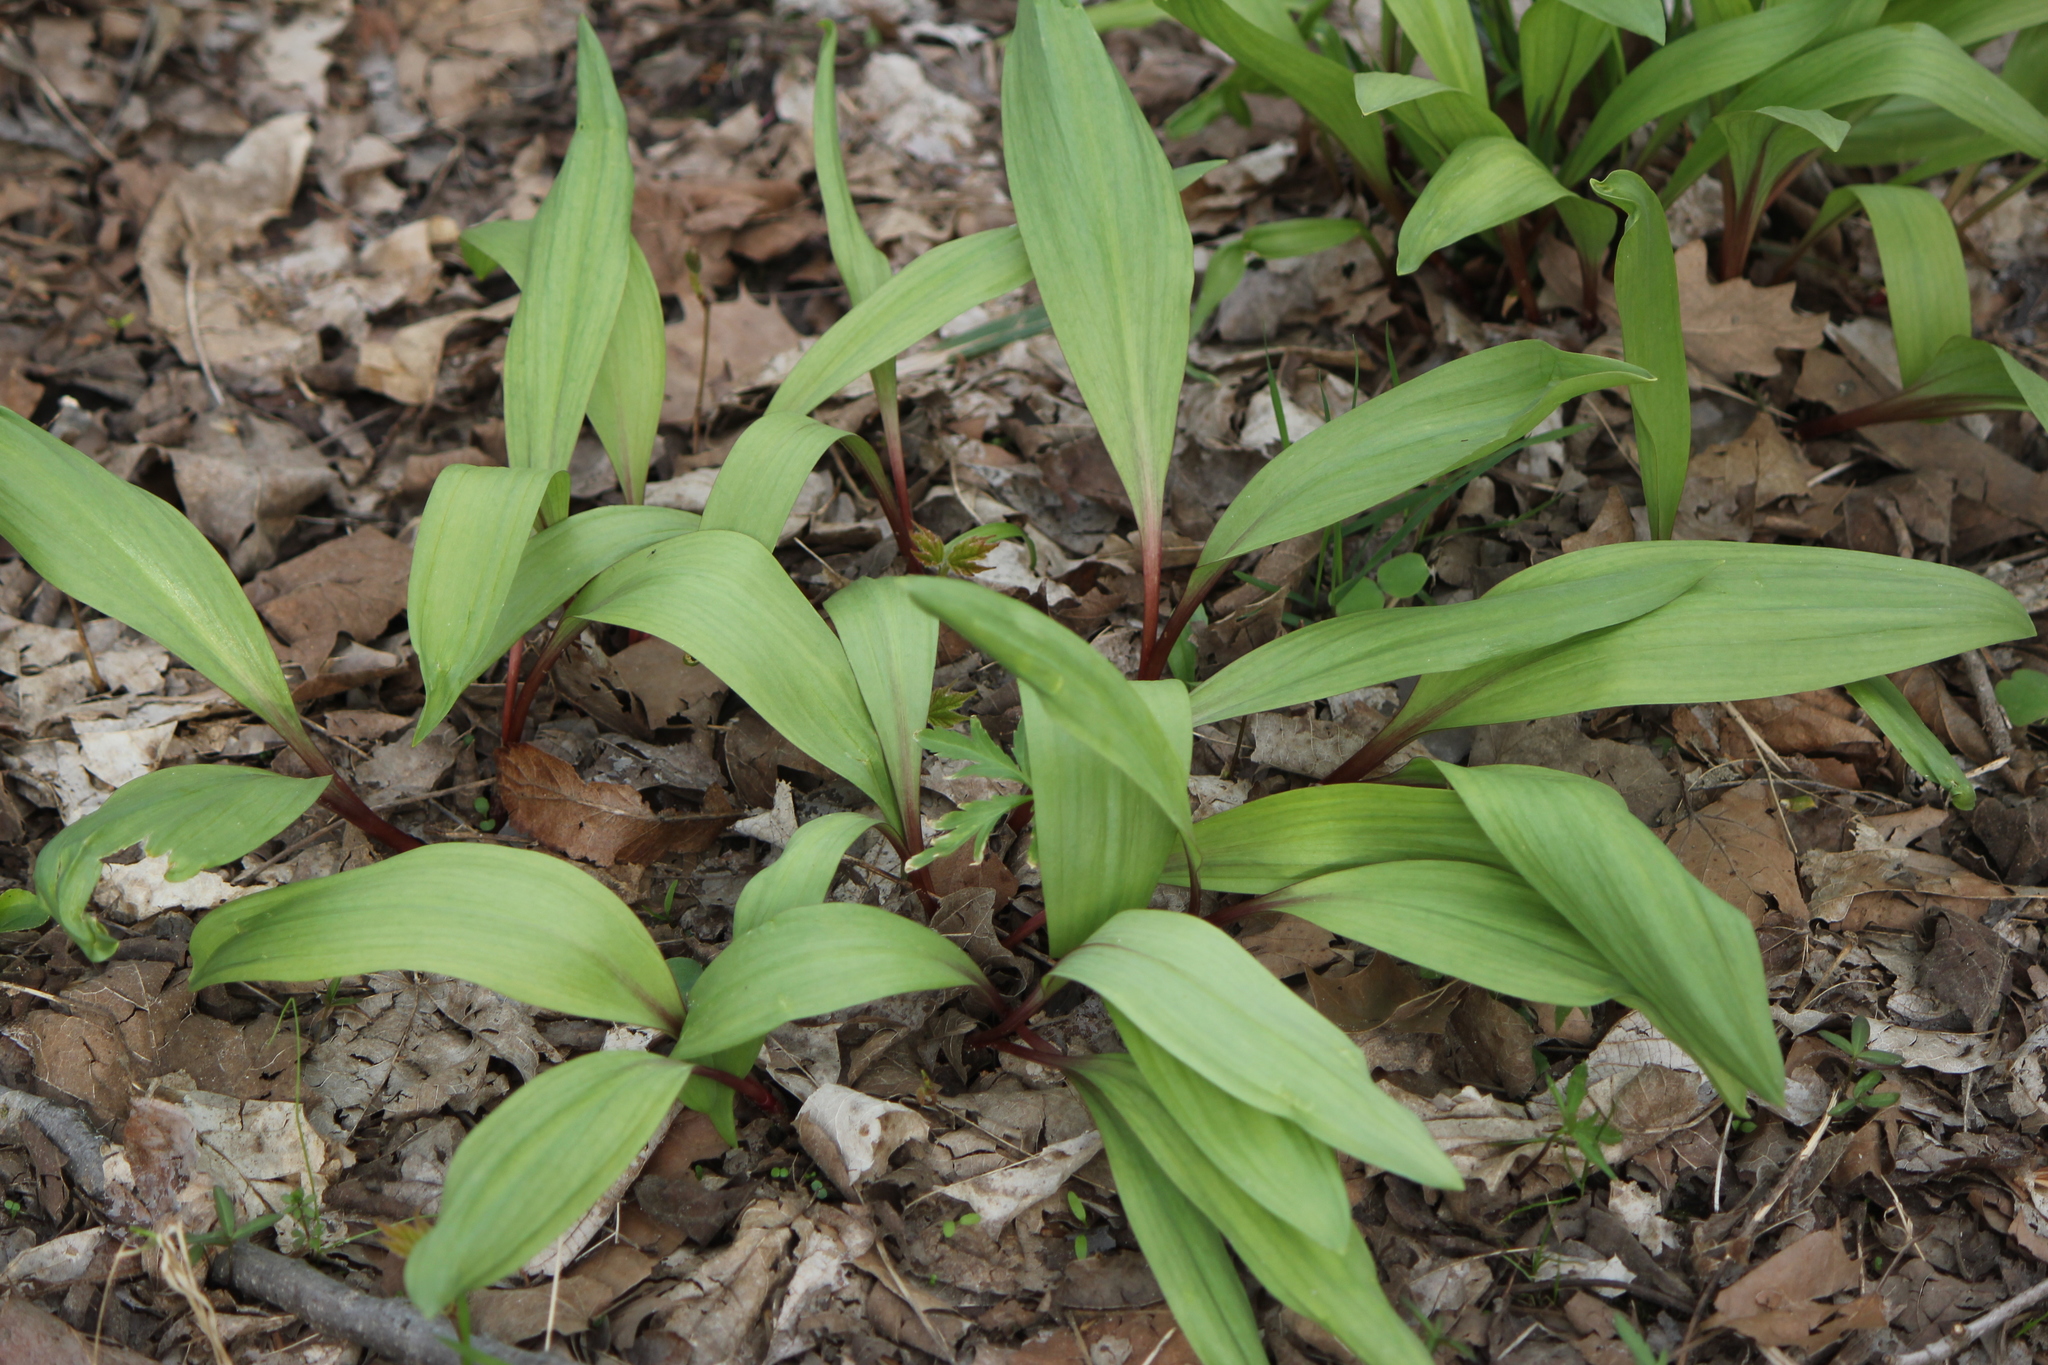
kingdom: Plantae
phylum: Tracheophyta
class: Liliopsida
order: Asparagales
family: Amaryllidaceae
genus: Allium
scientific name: Allium tricoccum
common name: Ramp
